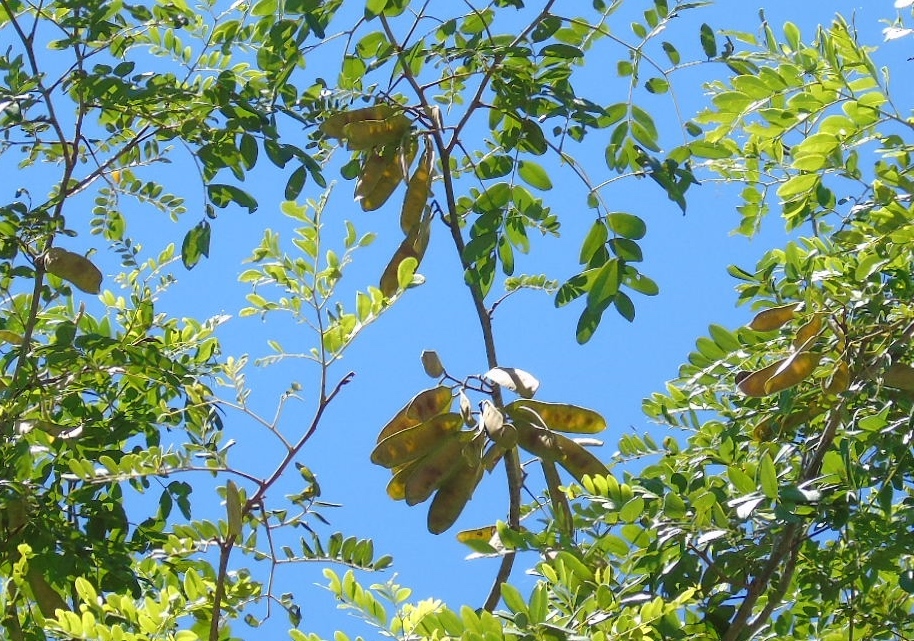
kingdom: Plantae
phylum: Tracheophyta
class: Magnoliopsida
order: Fabales
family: Fabaceae
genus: Coulteria
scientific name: Coulteria platyloba
